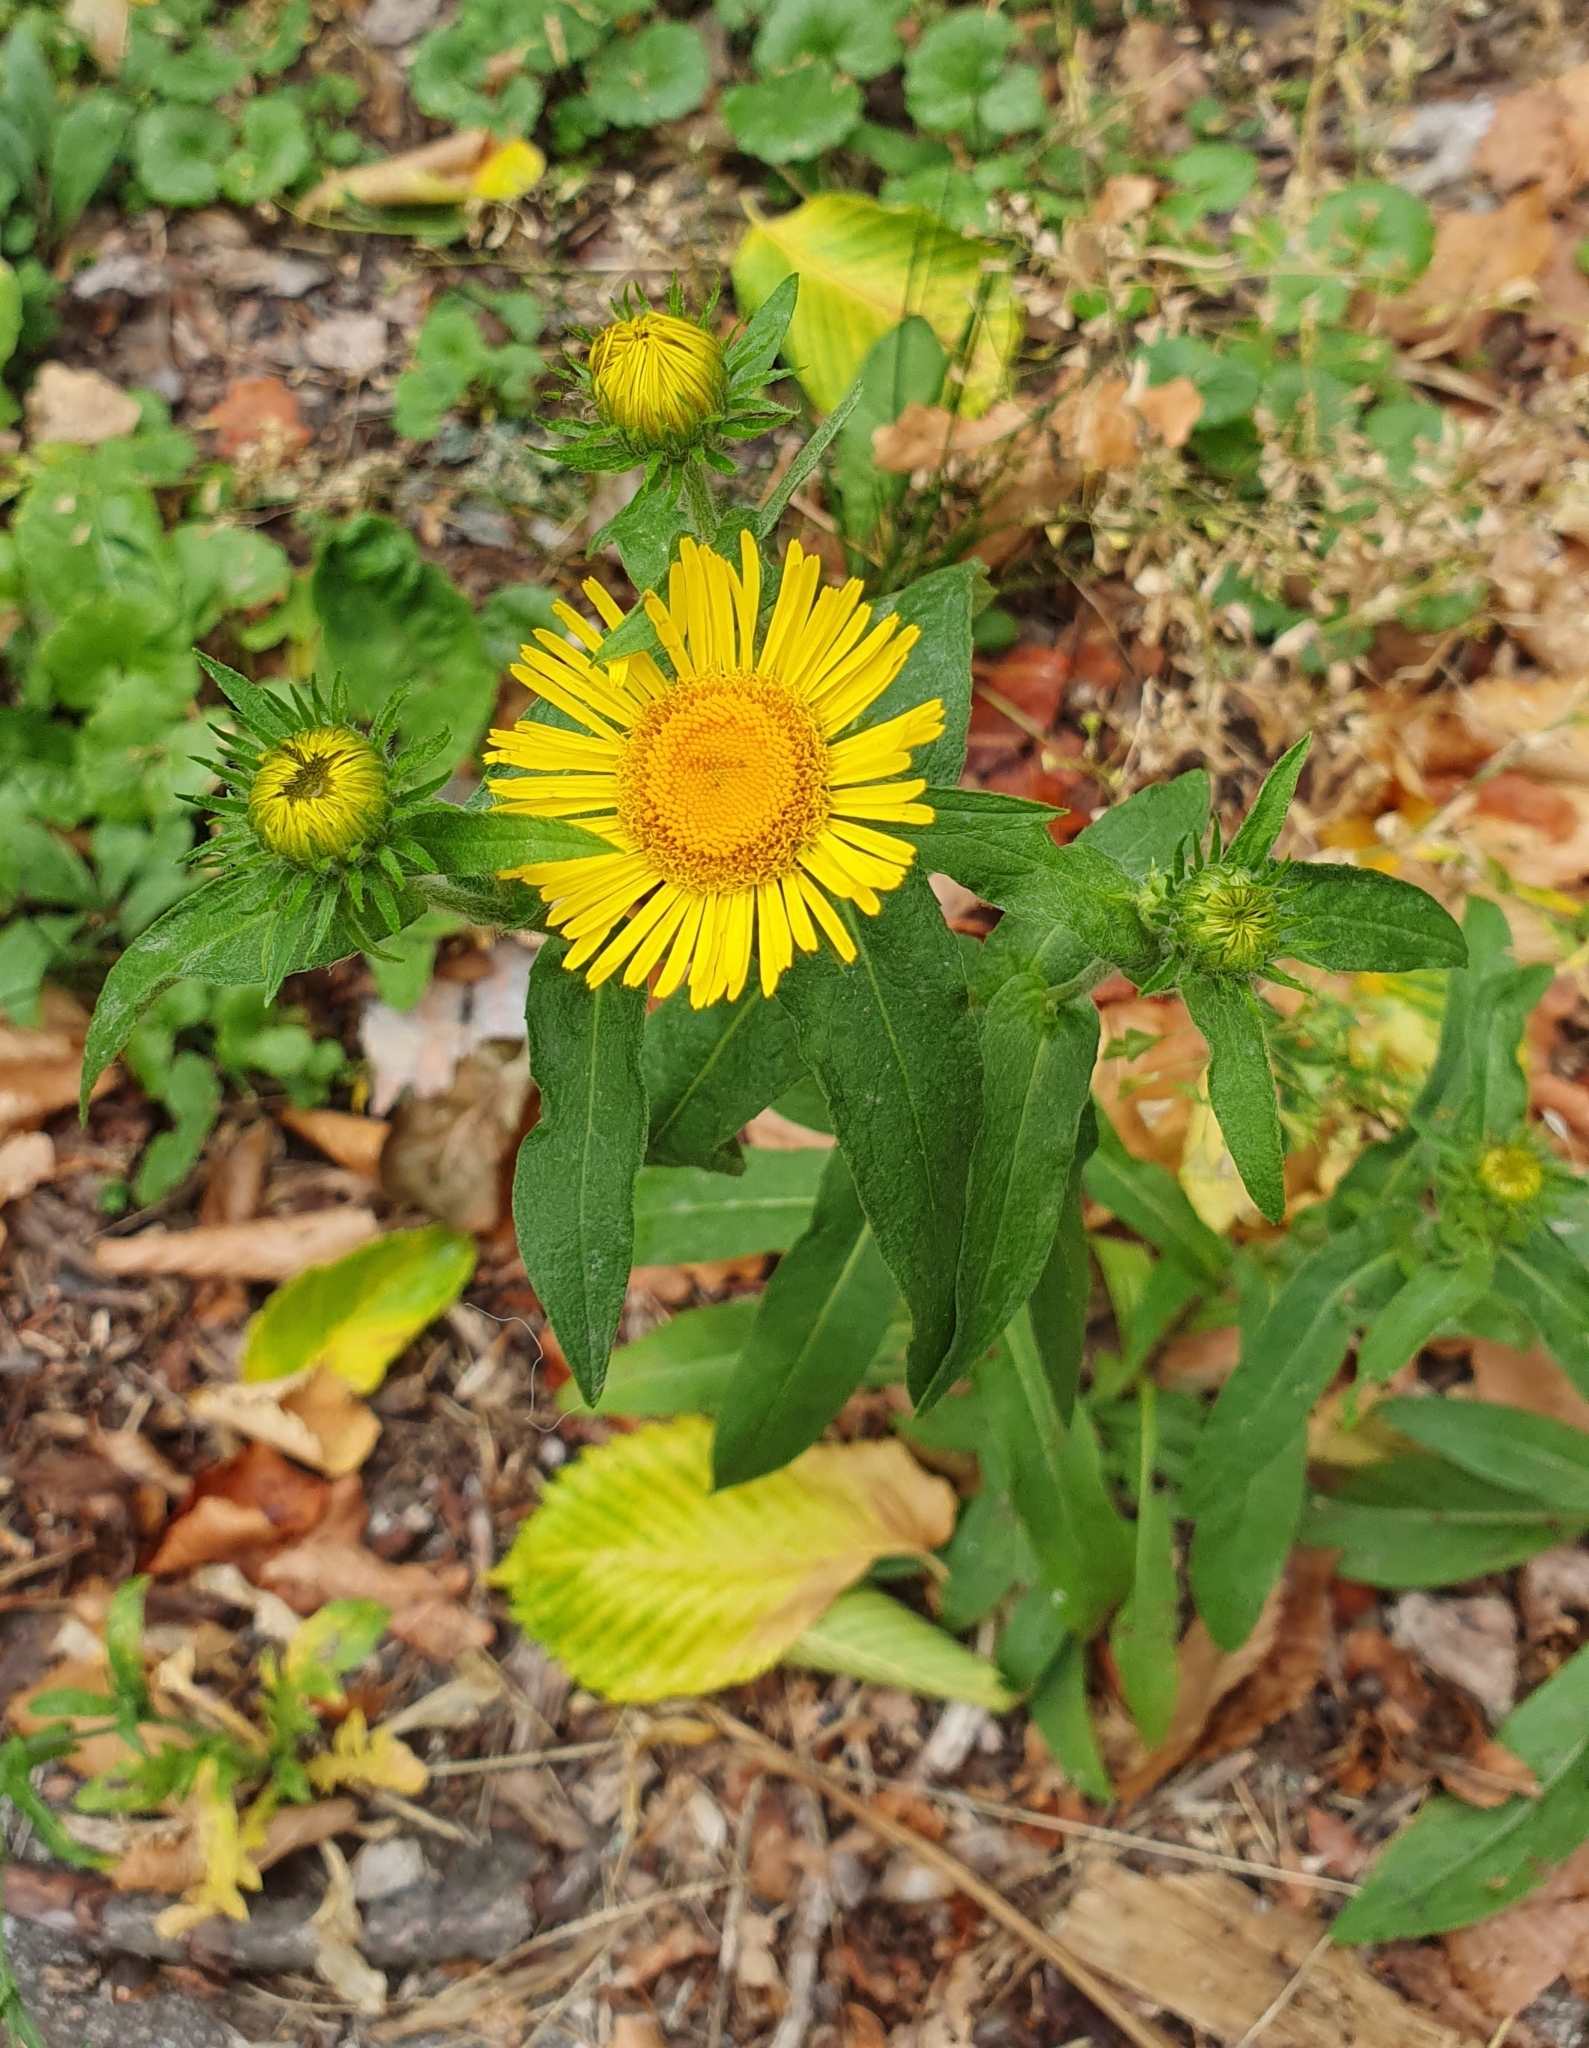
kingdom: Plantae
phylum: Tracheophyta
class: Magnoliopsida
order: Asterales
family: Asteraceae
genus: Pentanema
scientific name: Pentanema britannicum
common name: British elecampane
